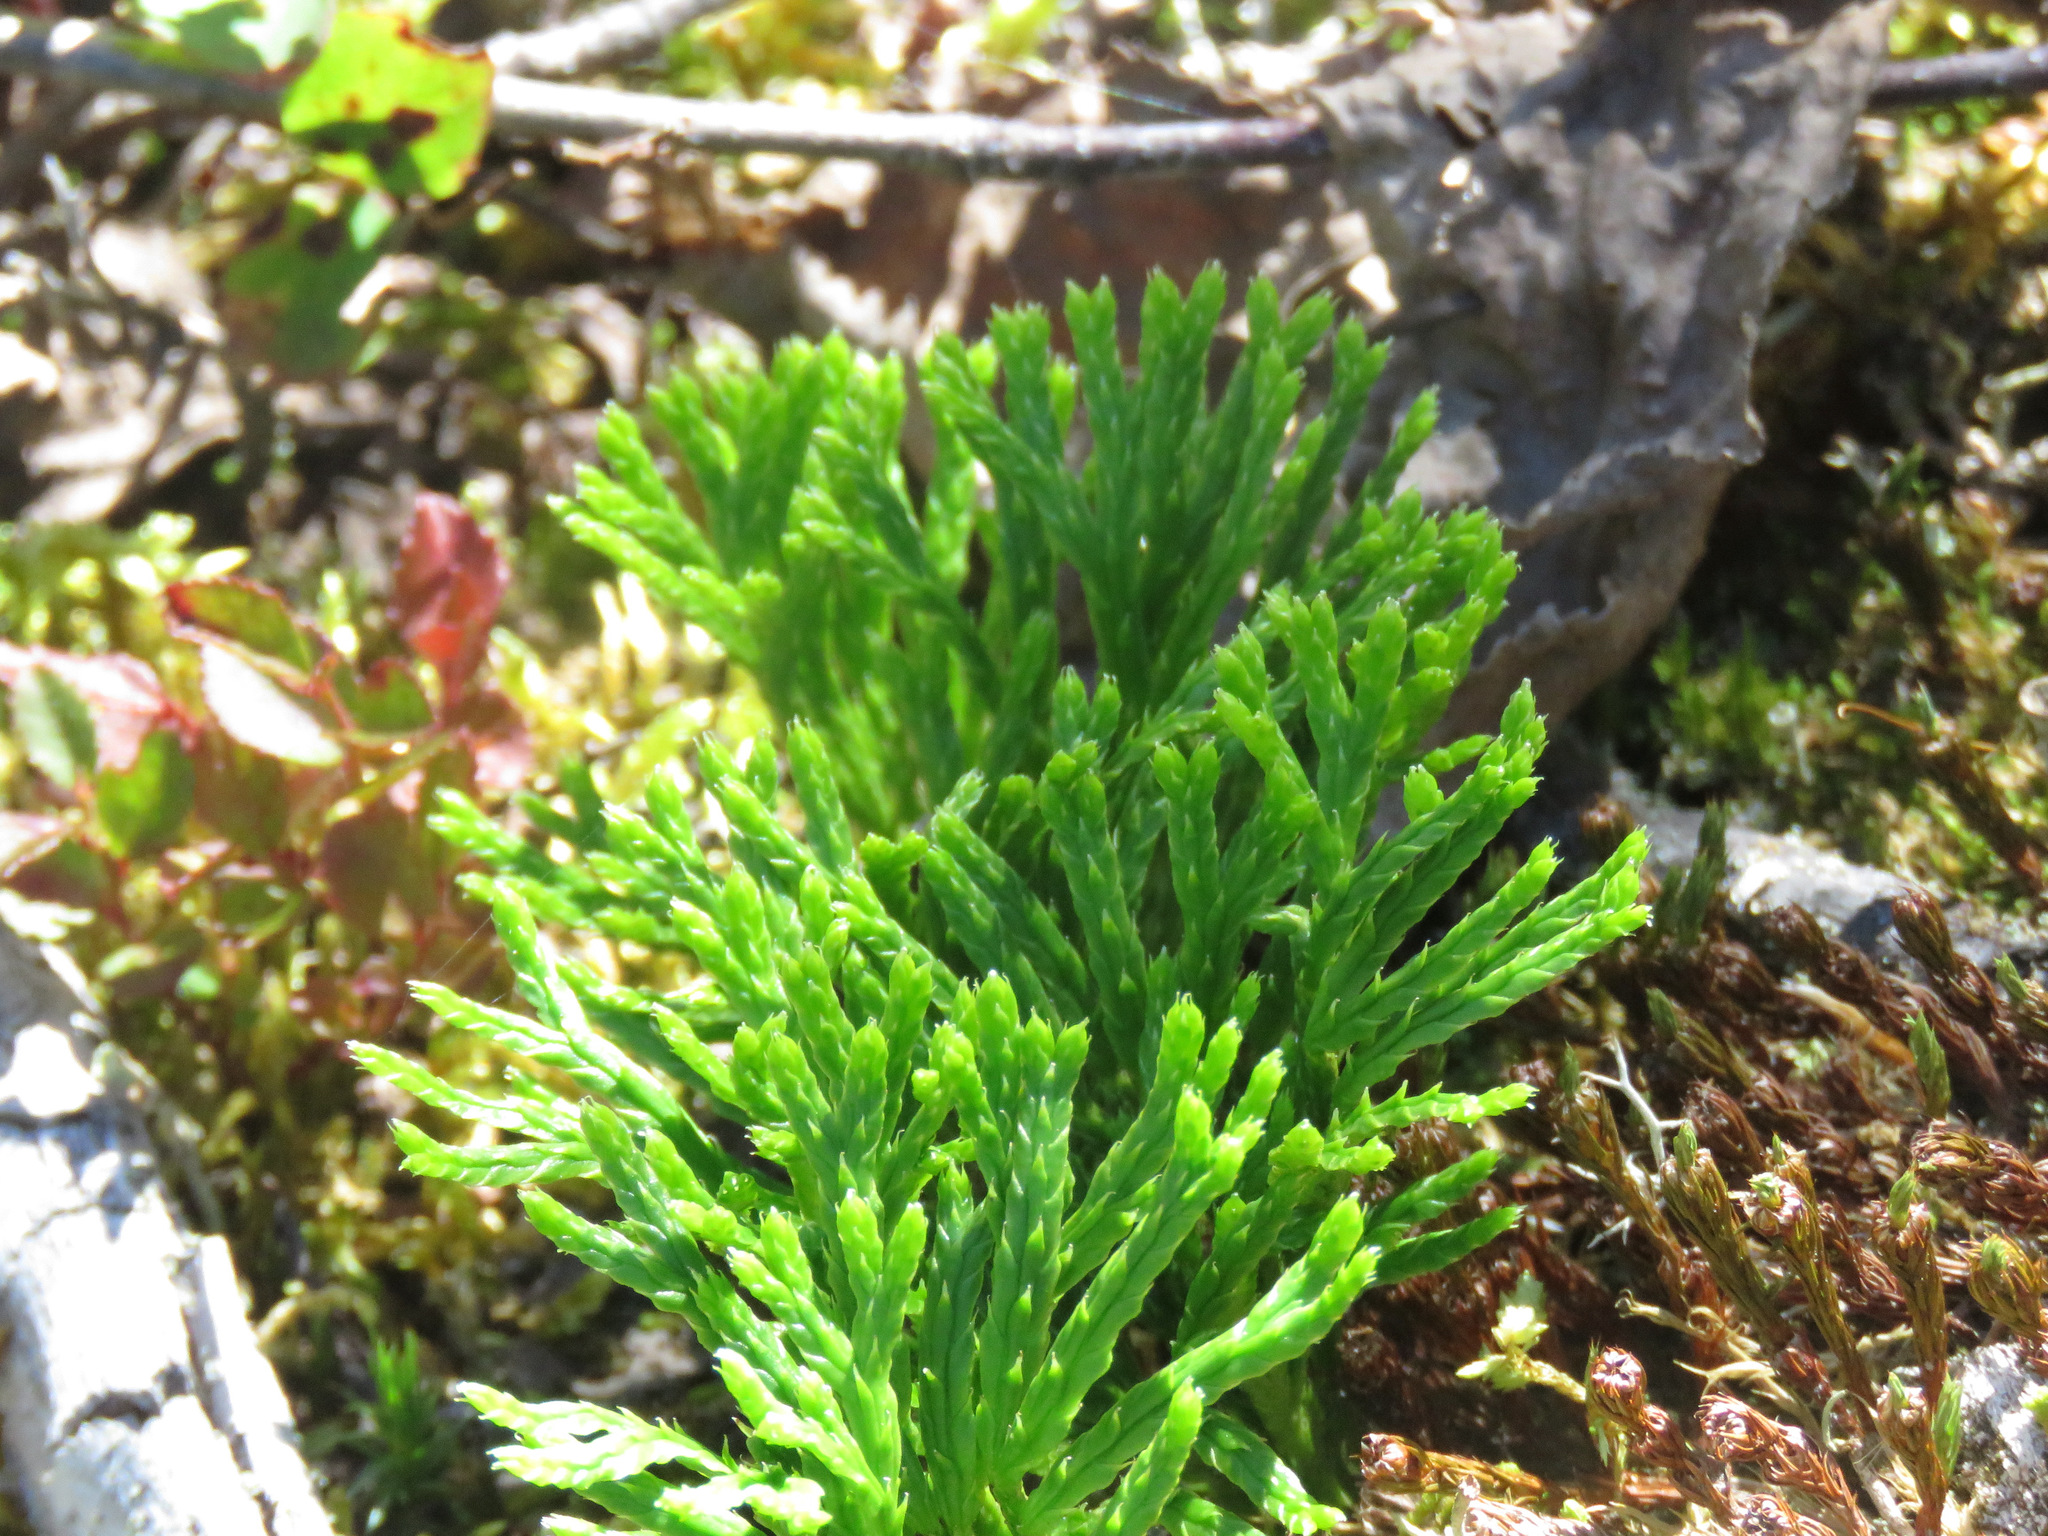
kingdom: Plantae
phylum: Tracheophyta
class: Lycopodiopsida
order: Lycopodiales
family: Lycopodiaceae
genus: Diphasiastrum
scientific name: Diphasiastrum complanatum
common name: Northern running-pine
